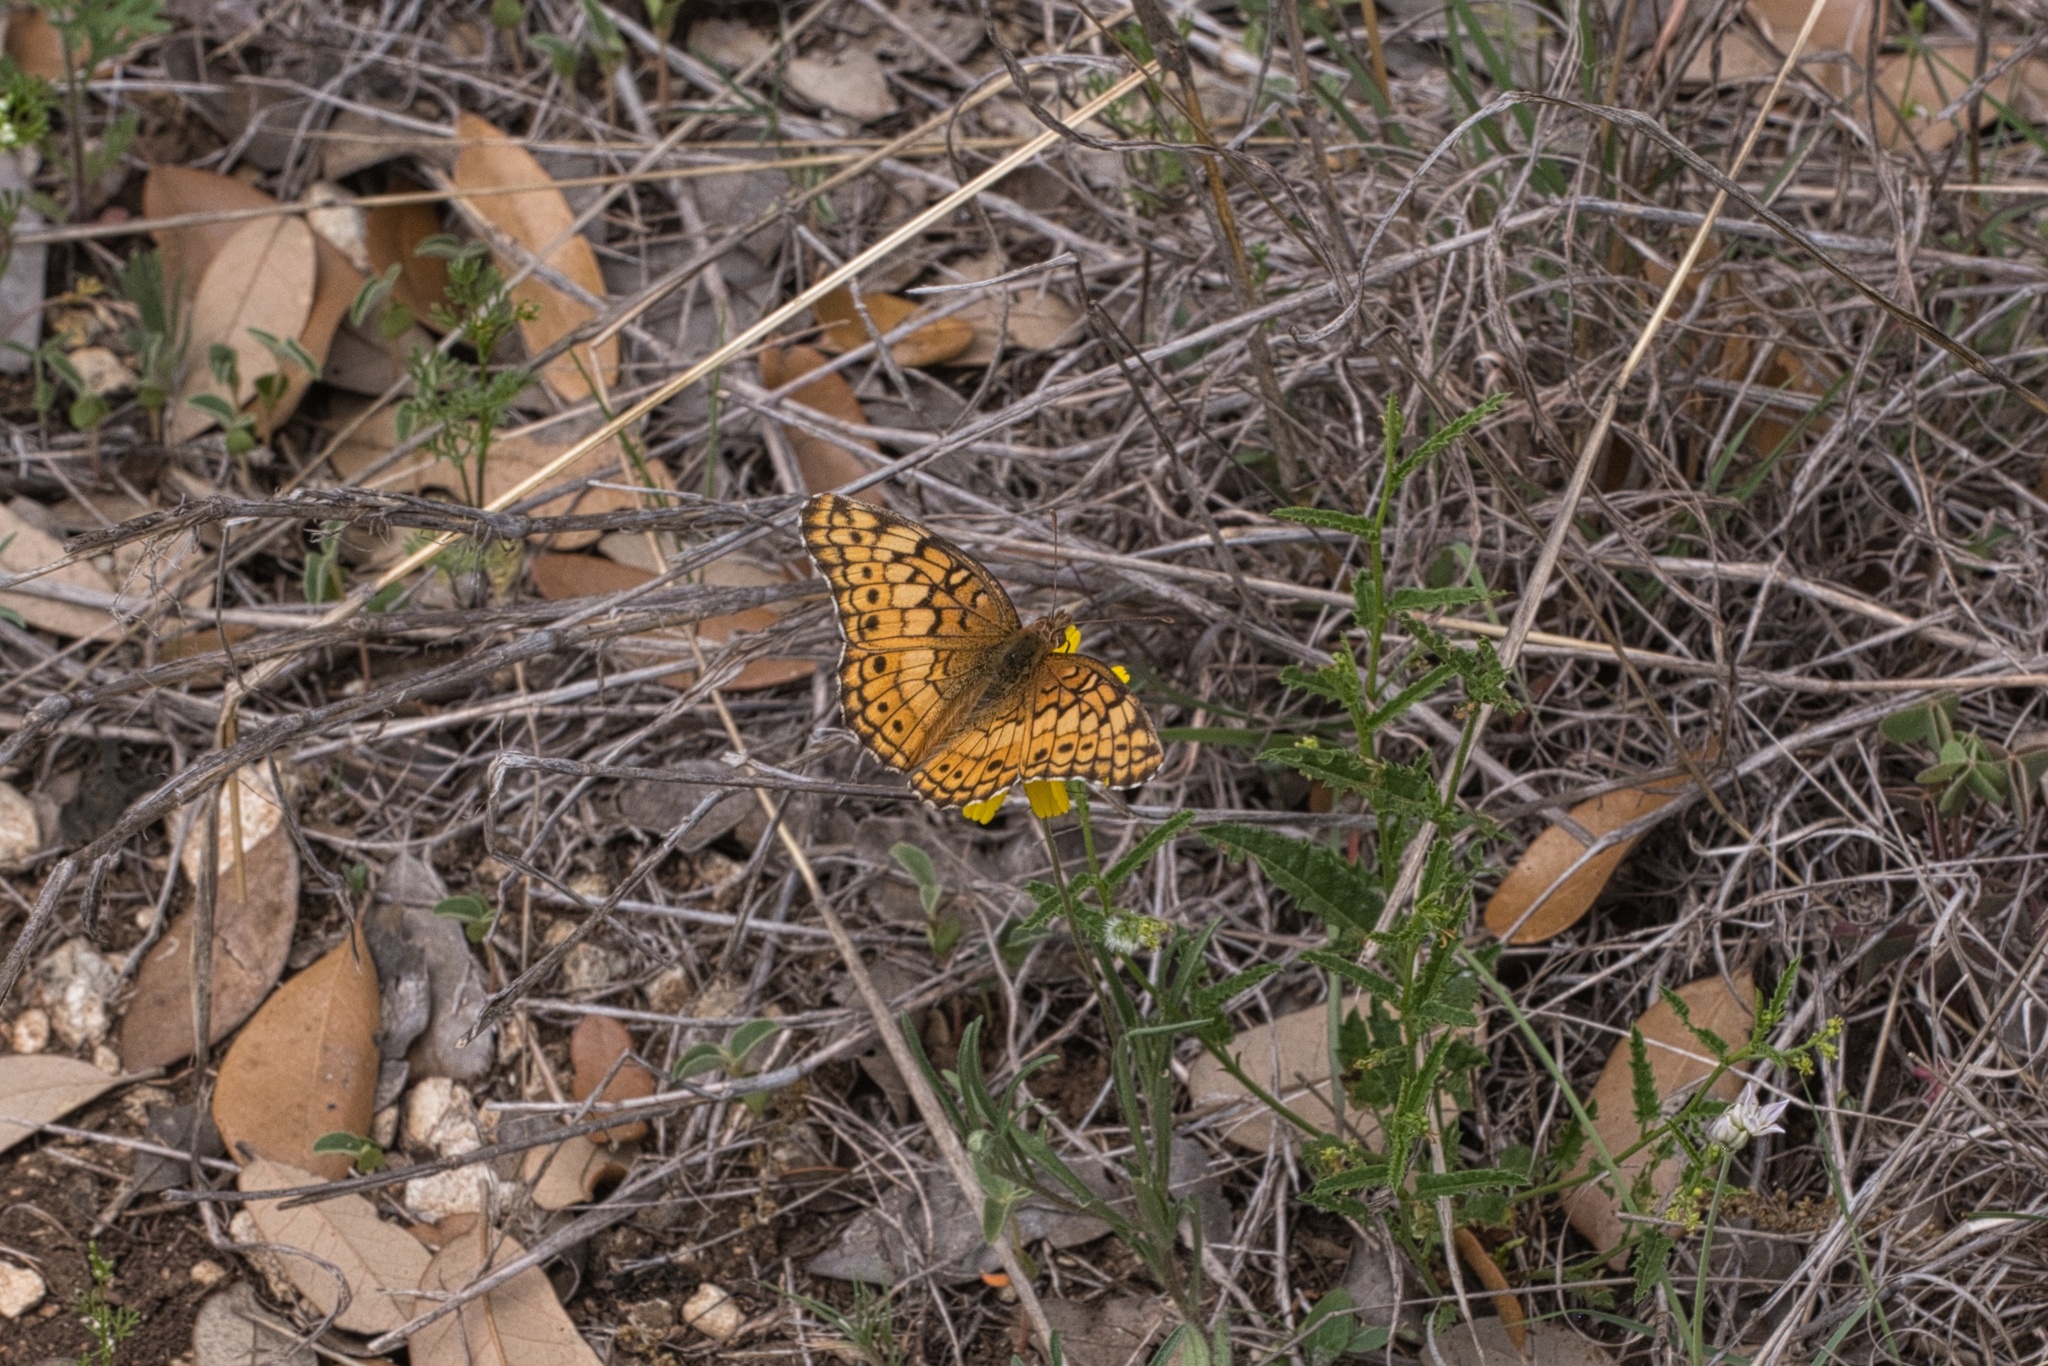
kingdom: Animalia
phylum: Arthropoda
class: Insecta
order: Lepidoptera
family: Nymphalidae
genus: Euptoieta
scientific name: Euptoieta claudia
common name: Variegated fritillary
